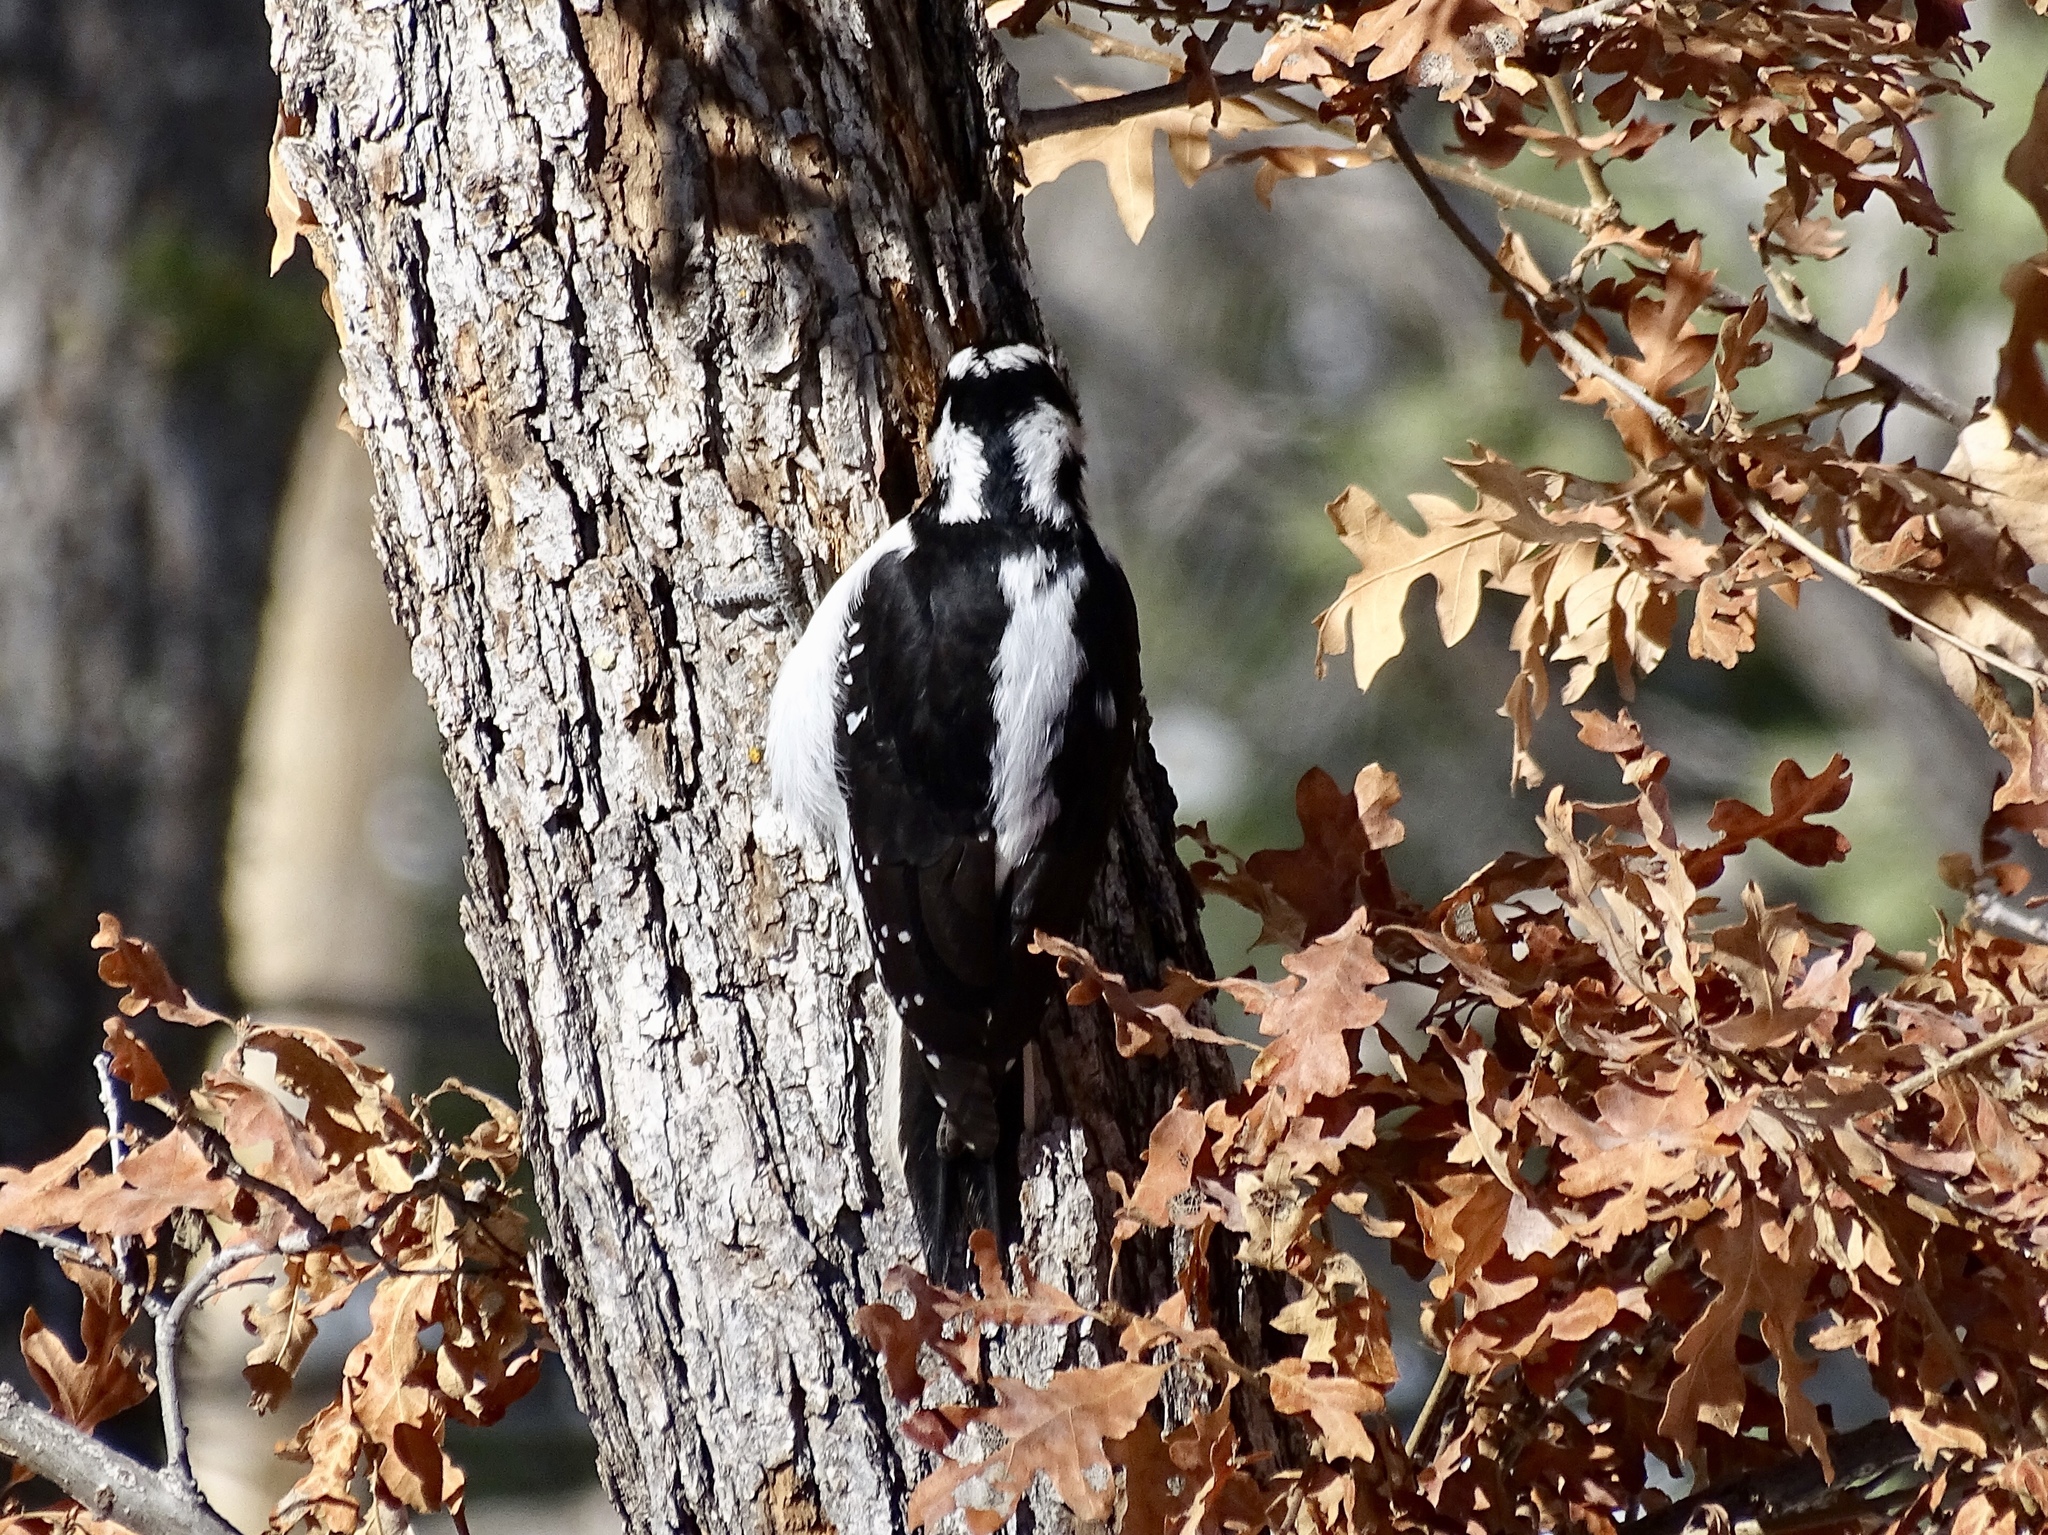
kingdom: Animalia
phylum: Chordata
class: Aves
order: Piciformes
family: Picidae
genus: Leuconotopicus
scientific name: Leuconotopicus villosus
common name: Hairy woodpecker
